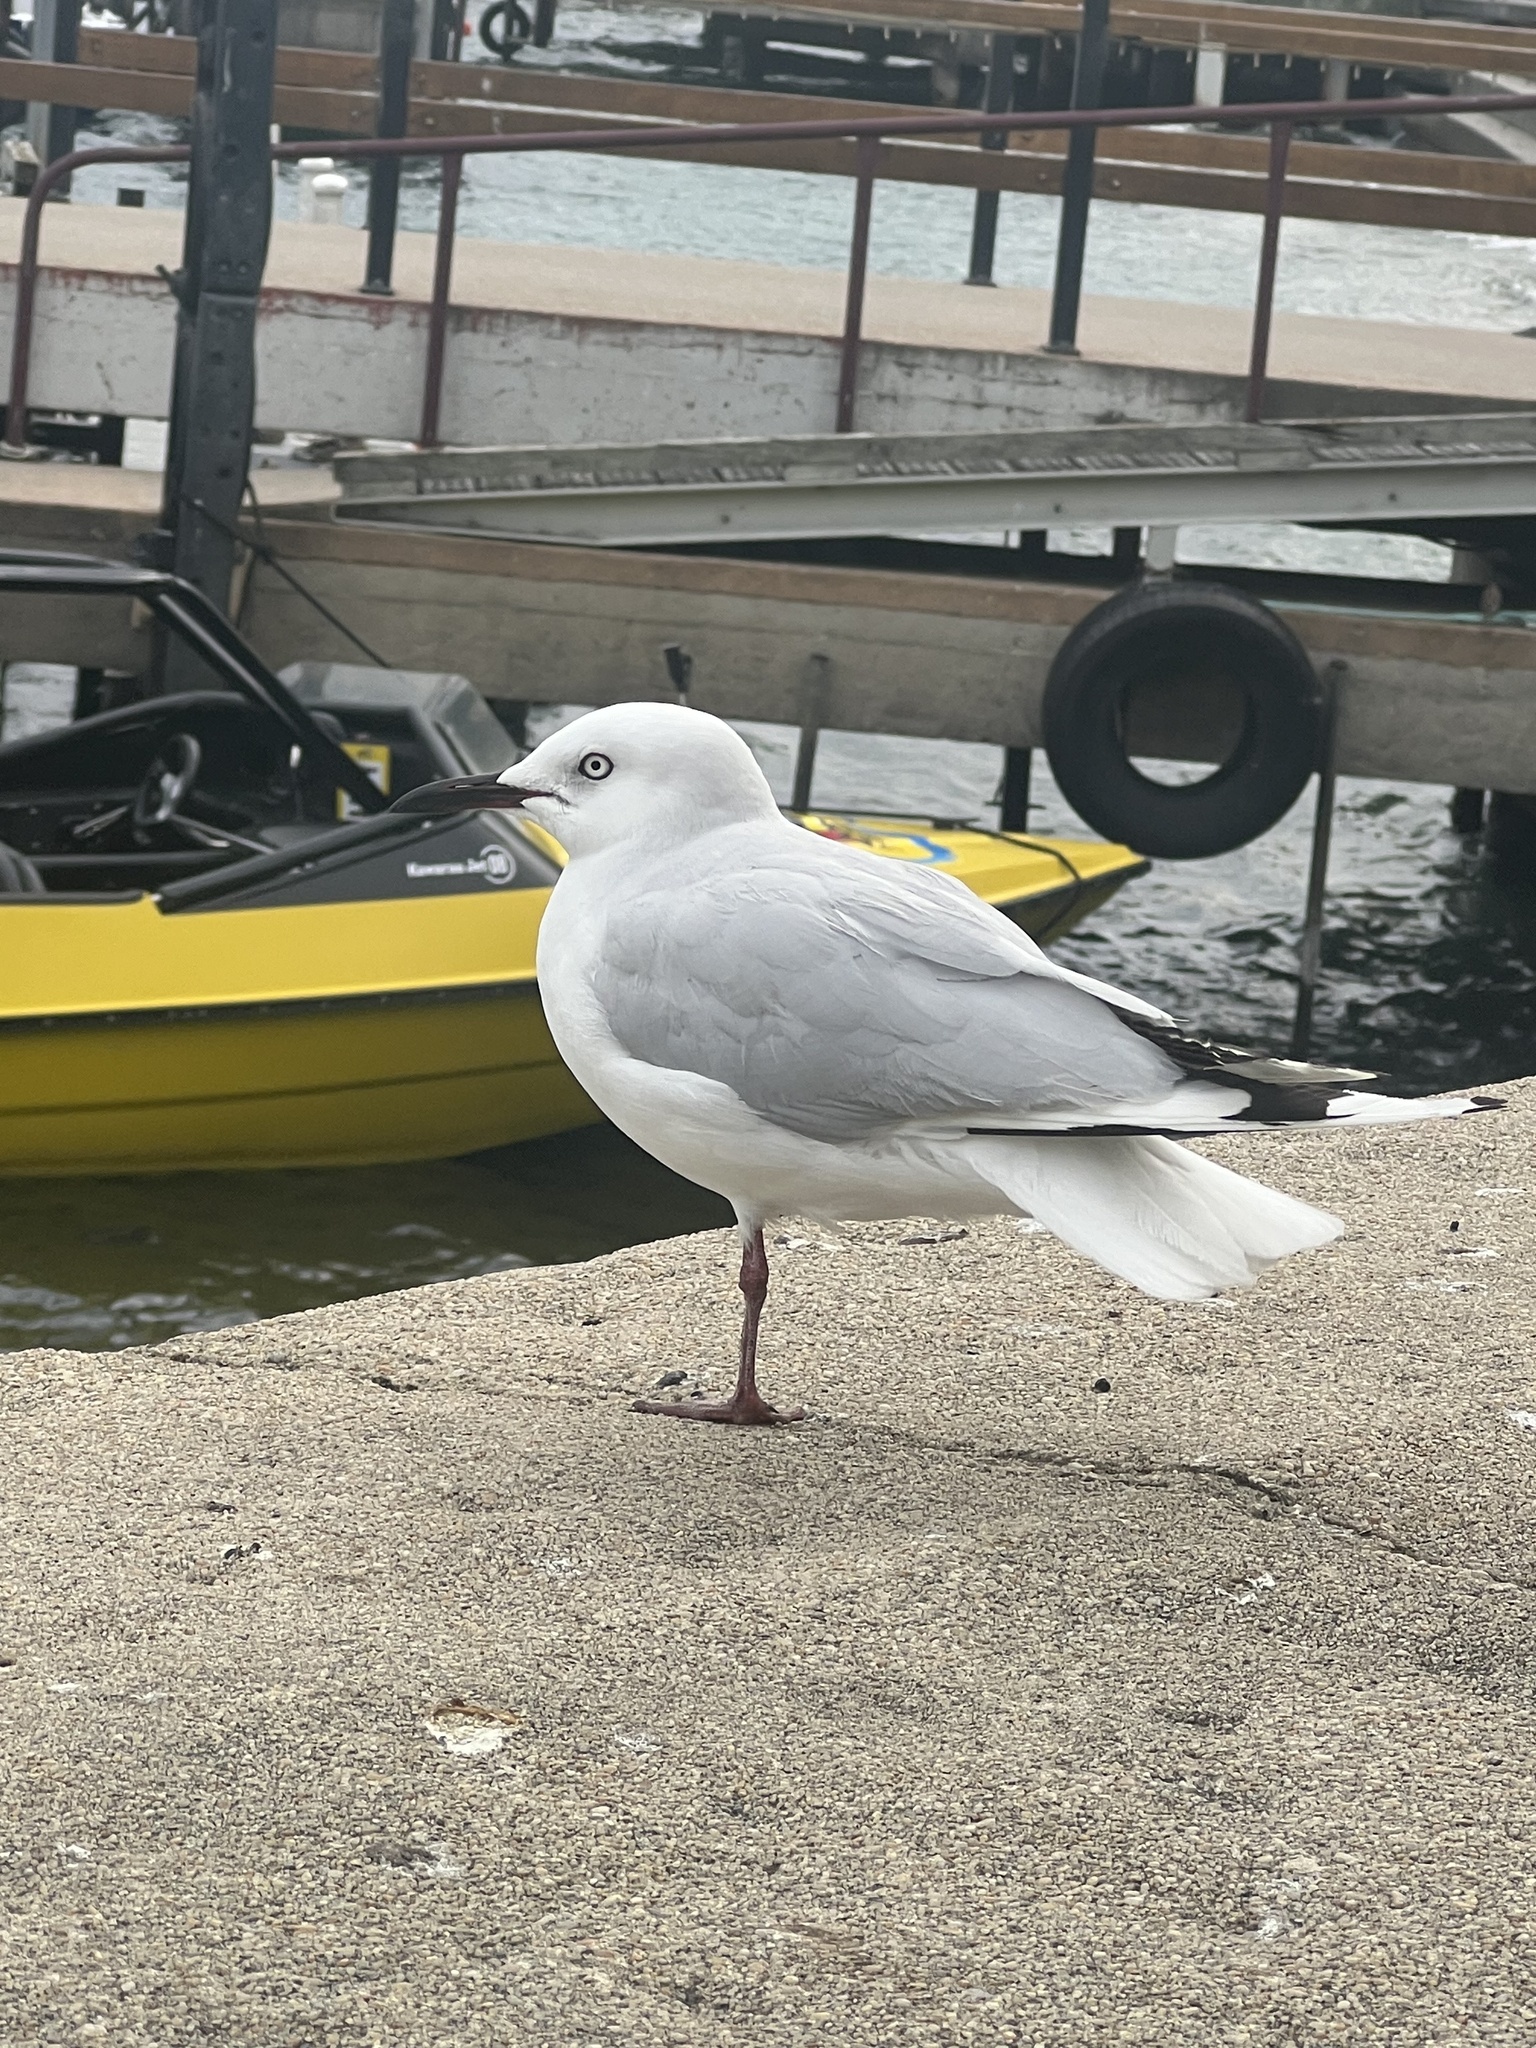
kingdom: Animalia
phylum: Chordata
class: Aves
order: Charadriiformes
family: Laridae
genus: Chroicocephalus
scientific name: Chroicocephalus bulleri
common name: Black-billed gull
